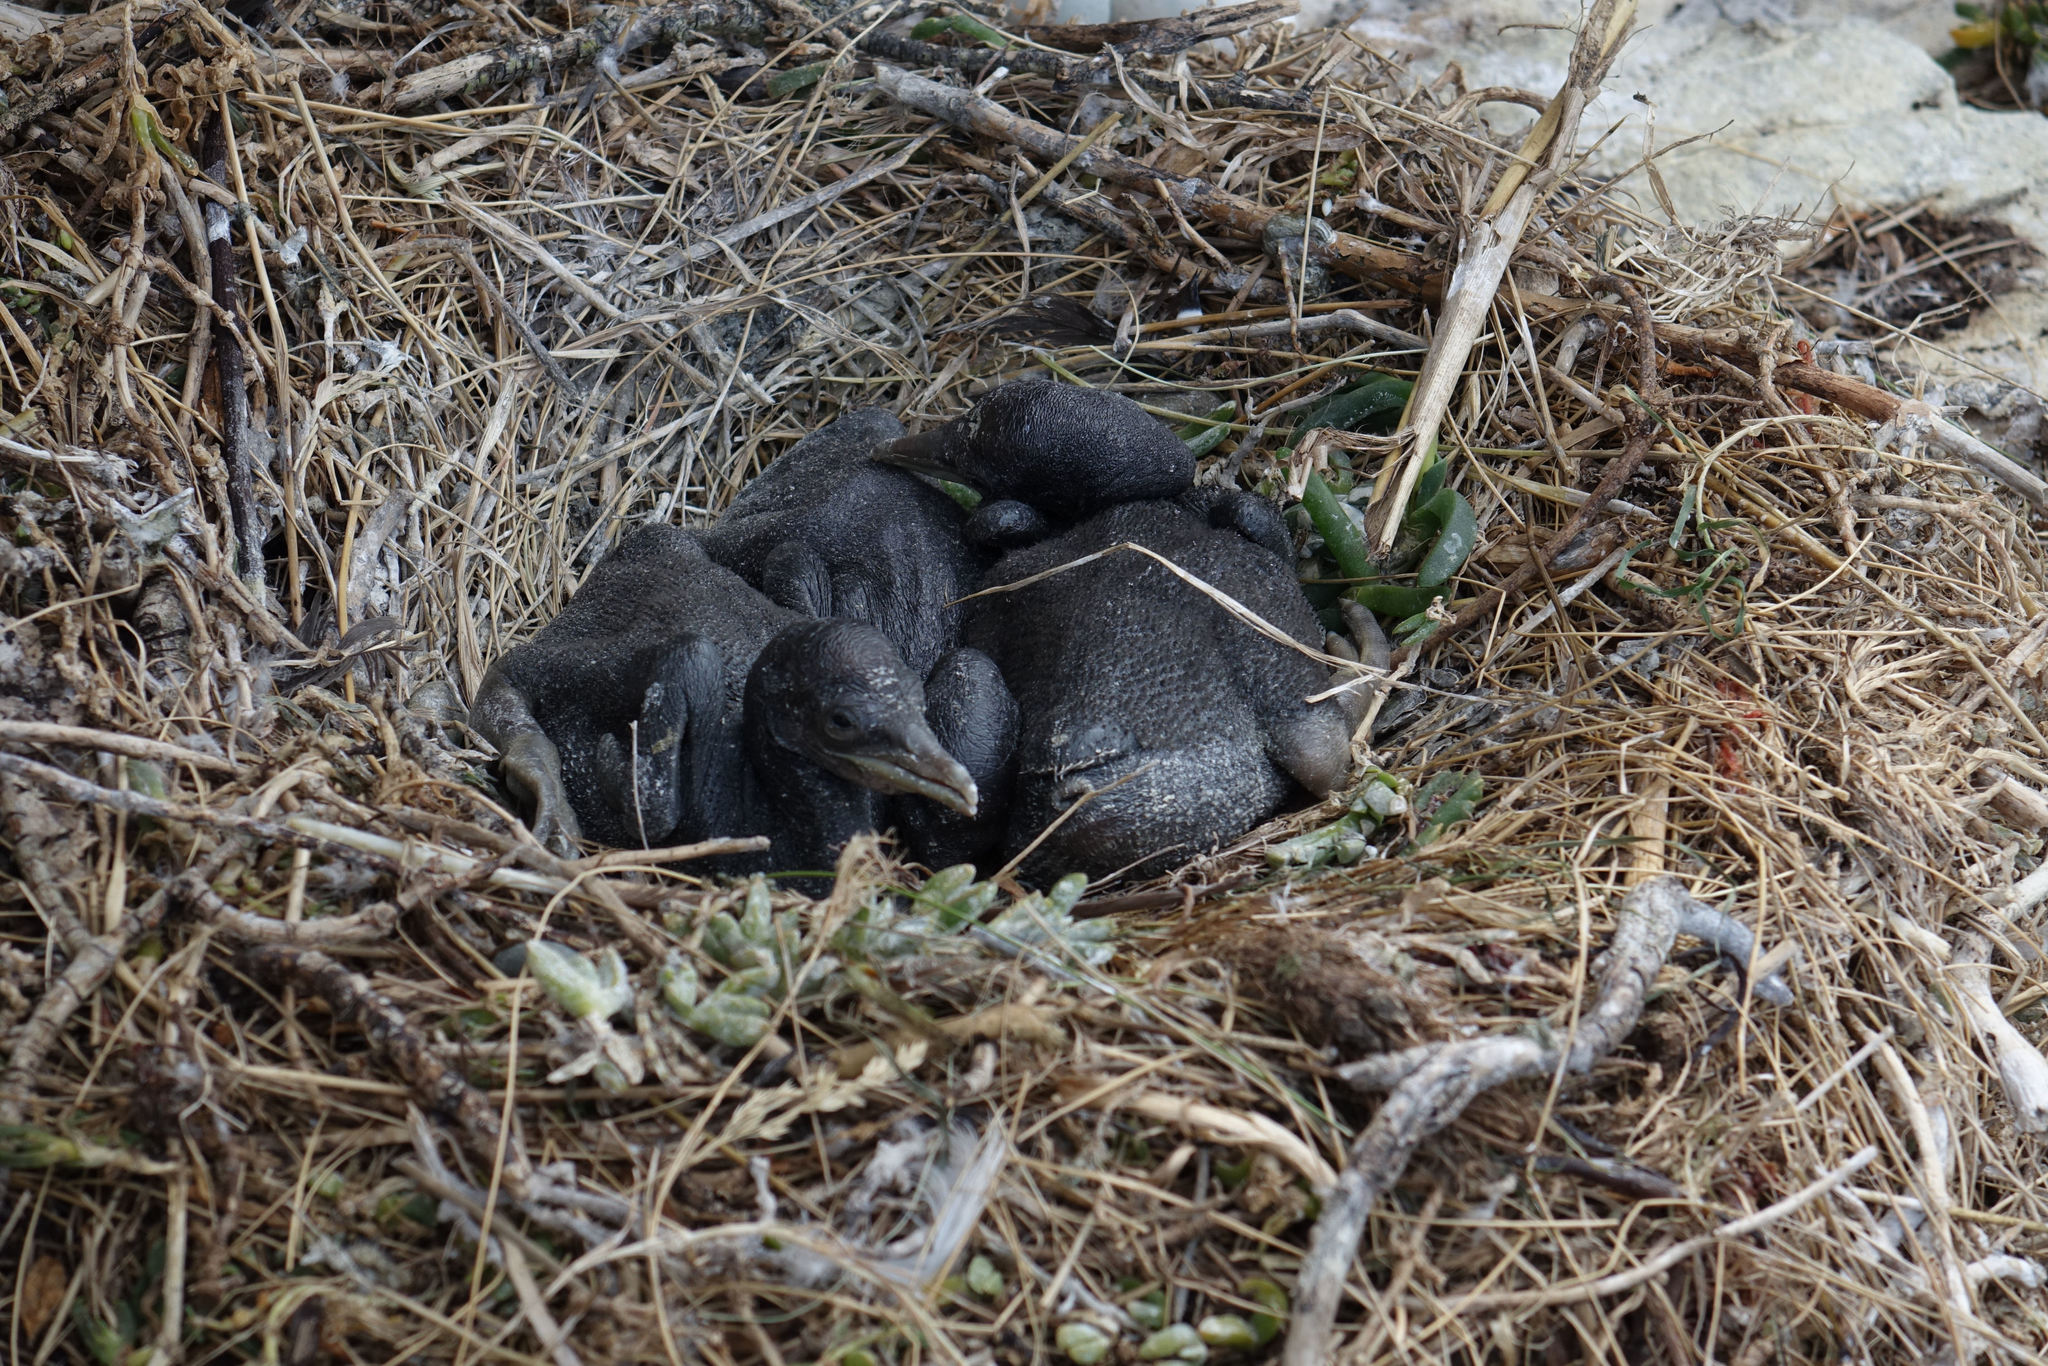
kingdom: Animalia
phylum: Chordata
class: Aves
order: Suliformes
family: Phalacrocoracidae
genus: Phalacrocorax
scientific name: Phalacrocorax punctatus
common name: Spotted shag
